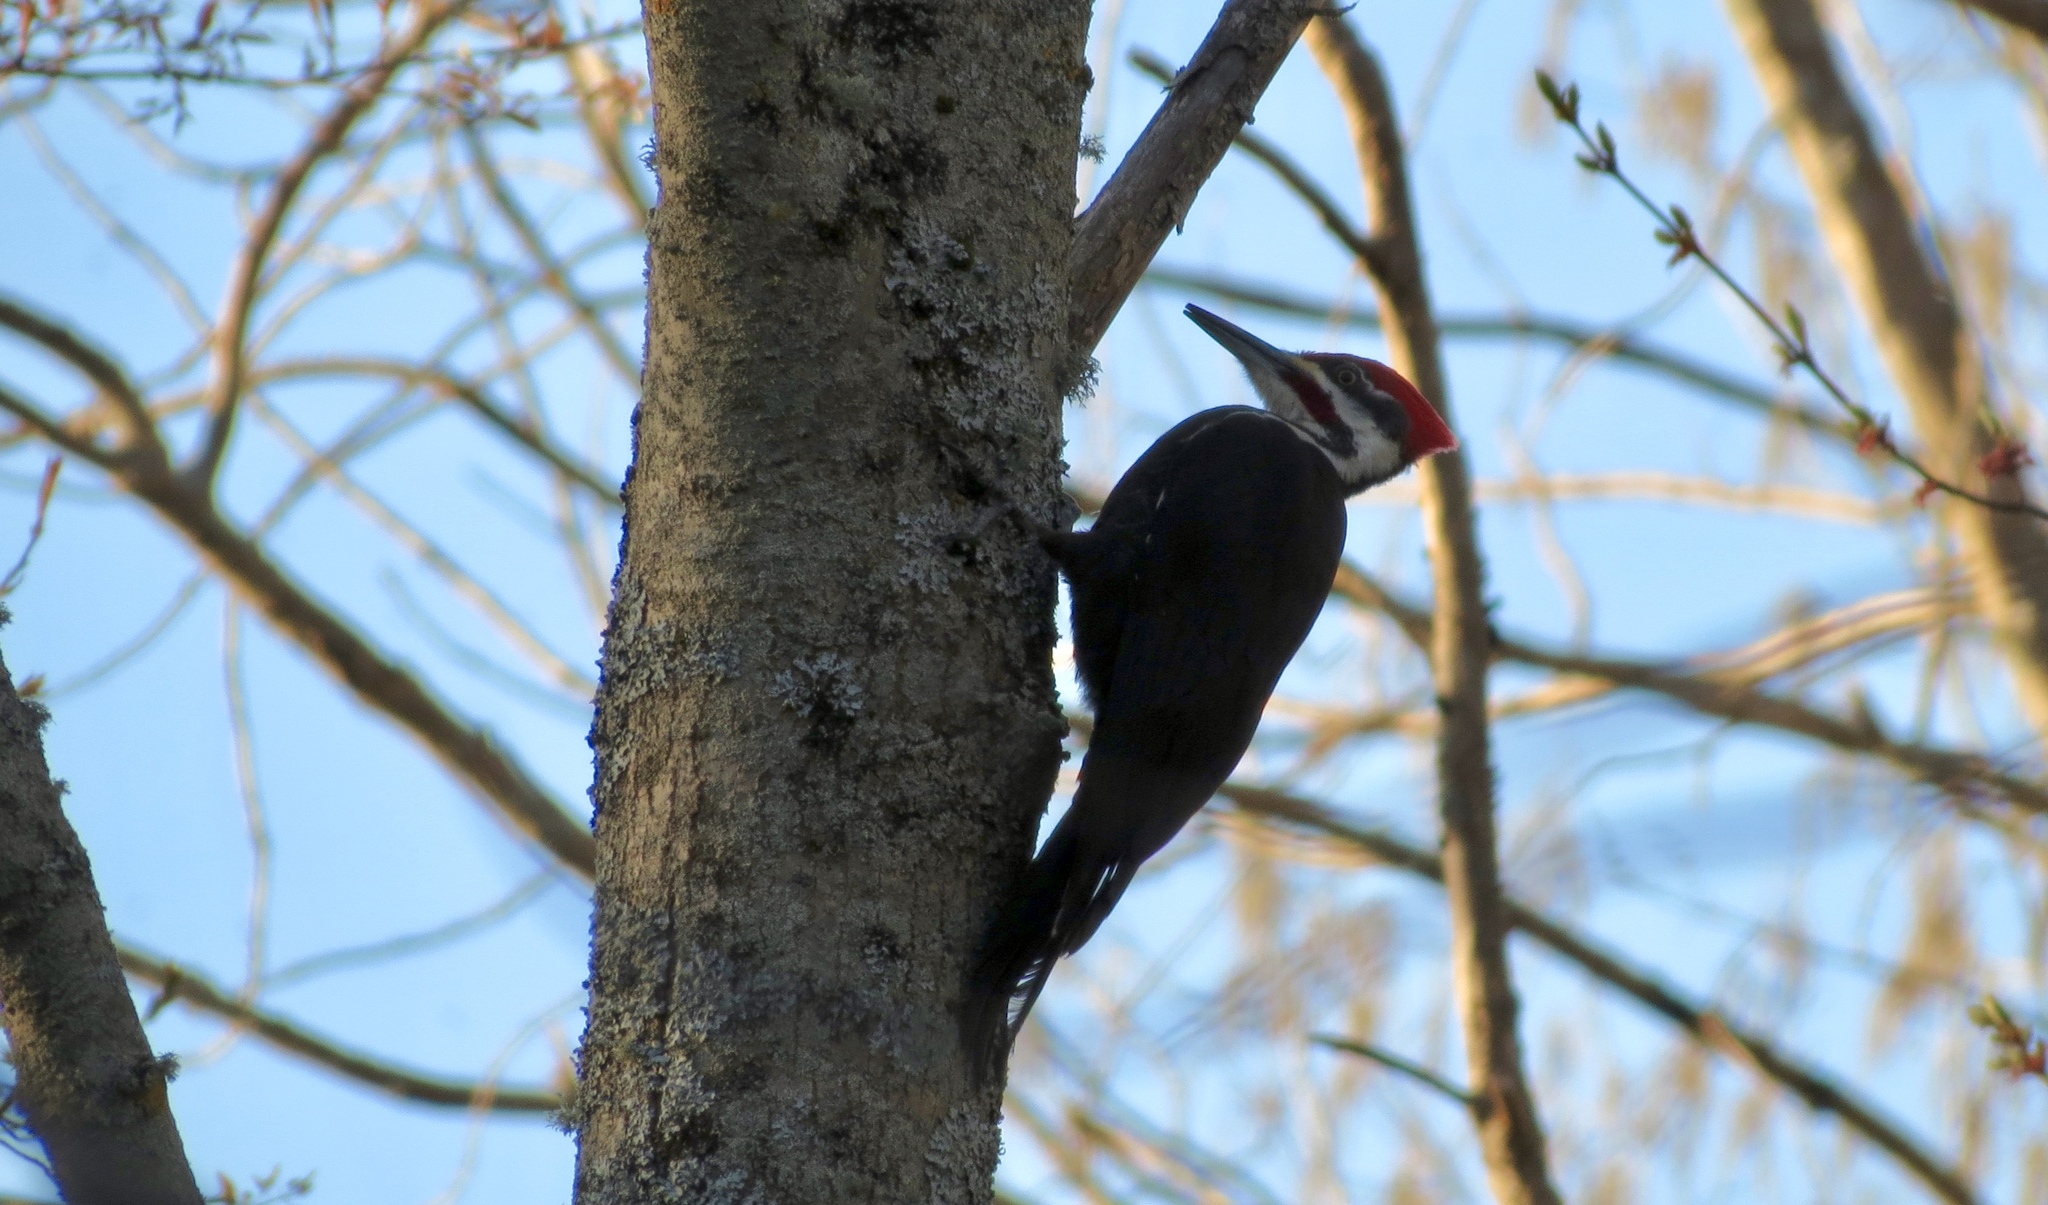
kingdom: Animalia
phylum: Chordata
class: Aves
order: Piciformes
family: Picidae
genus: Dryocopus
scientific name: Dryocopus pileatus
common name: Pileated woodpecker
